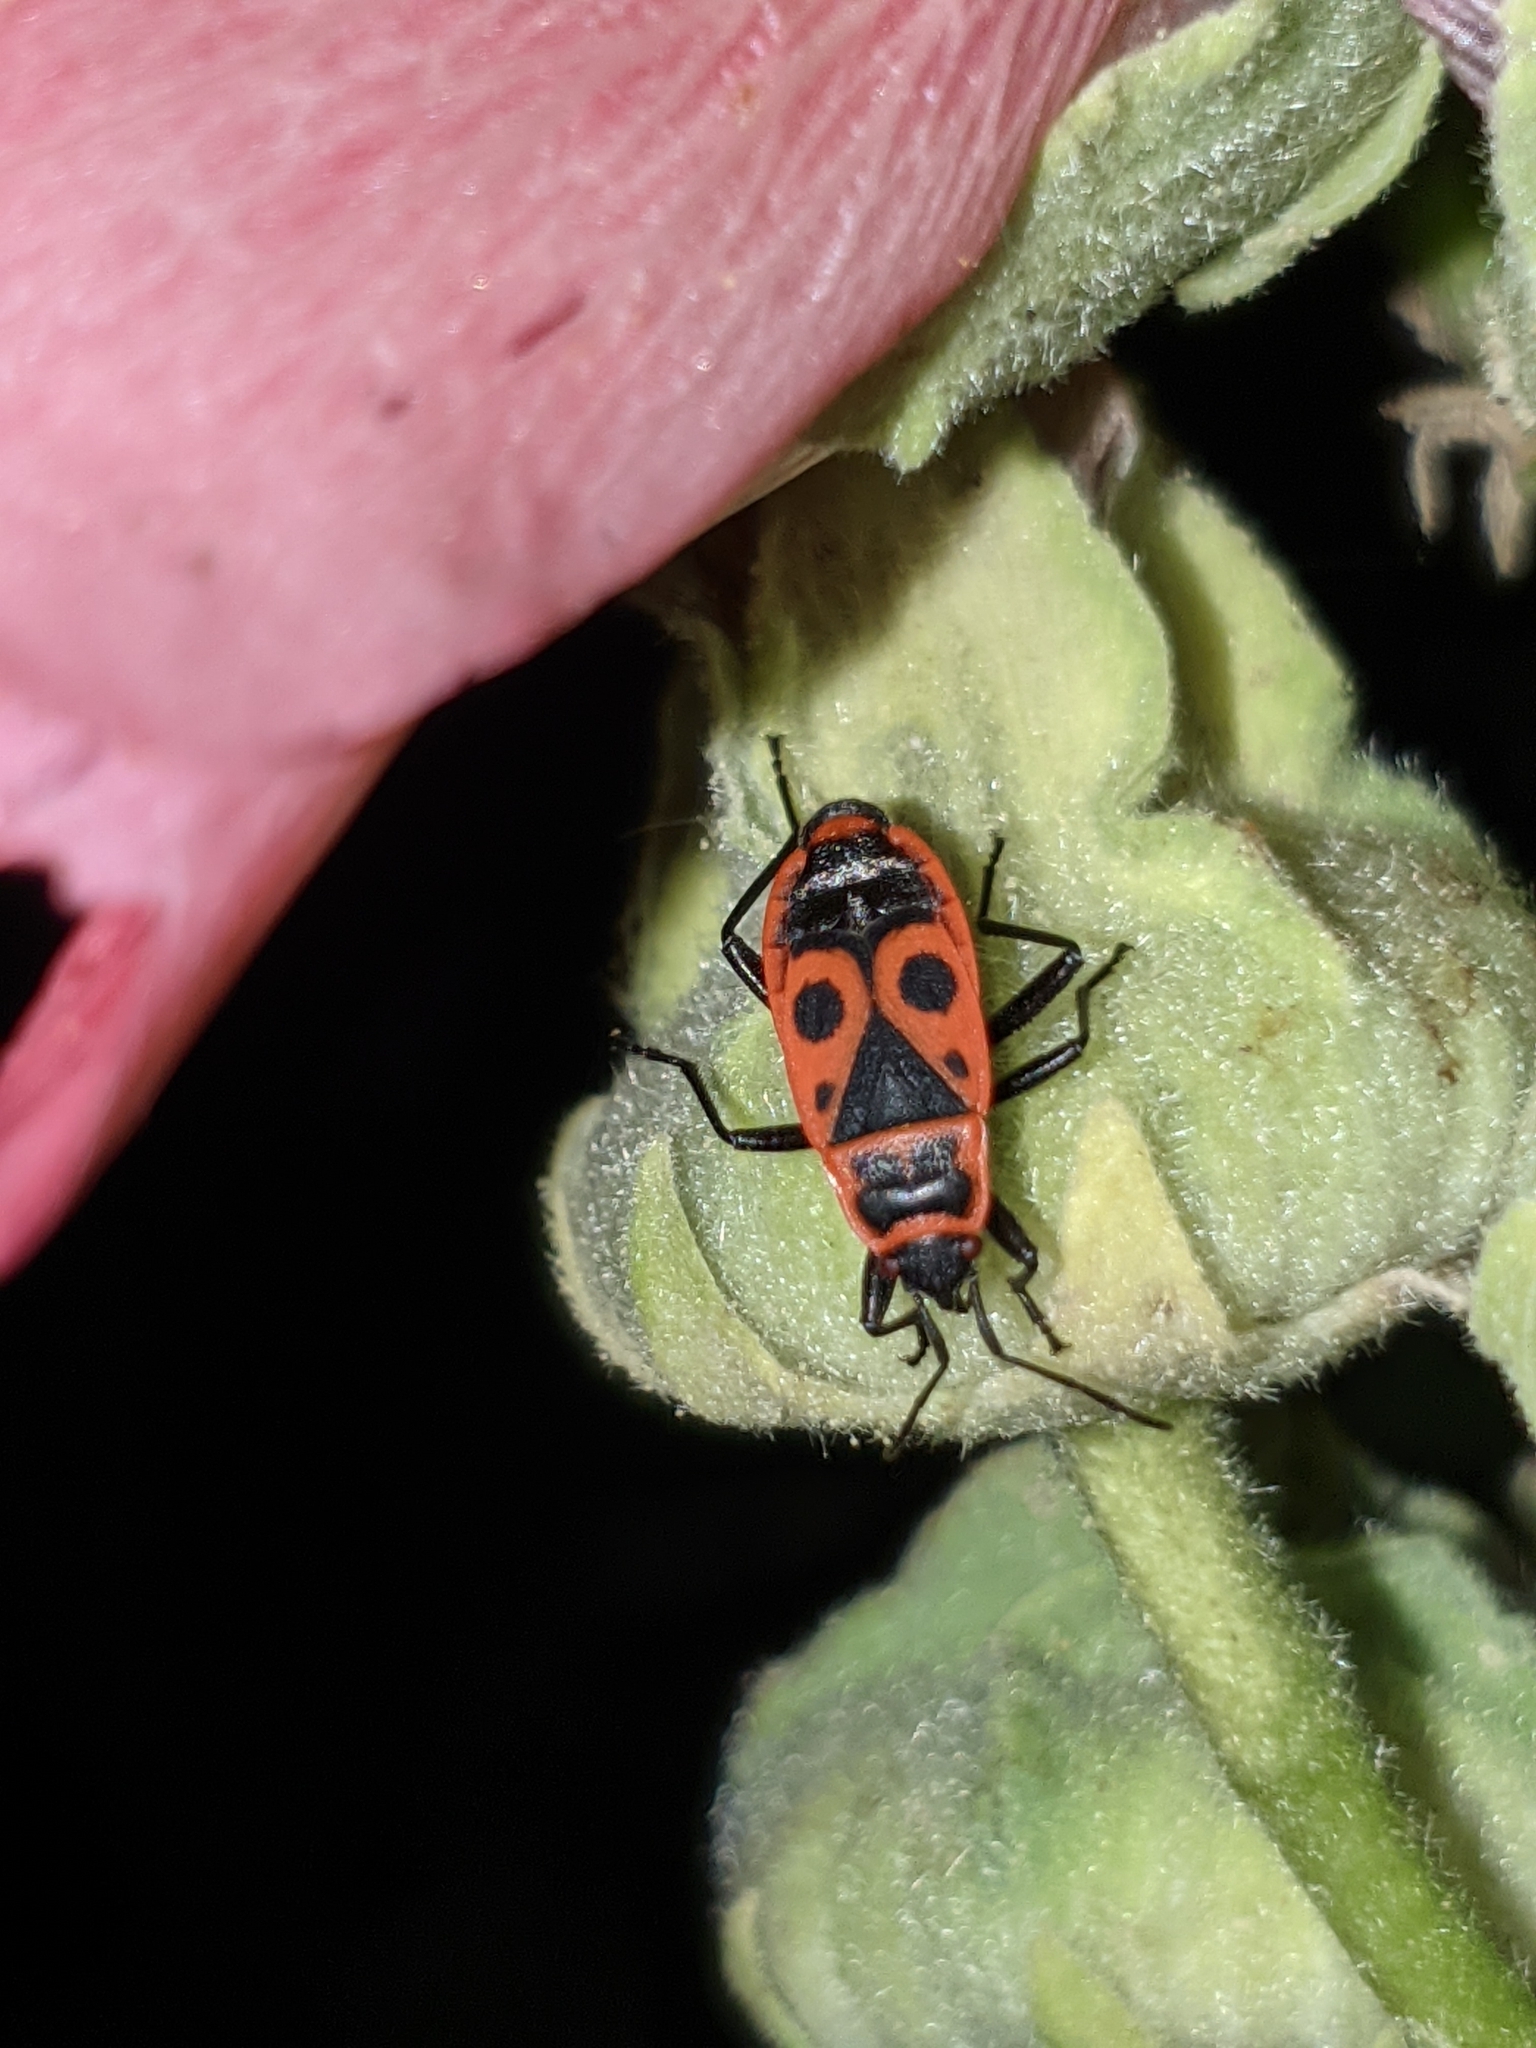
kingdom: Animalia
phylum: Arthropoda
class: Insecta
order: Hemiptera
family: Pyrrhocoridae
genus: Pyrrhocoris
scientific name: Pyrrhocoris apterus
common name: Firebug
